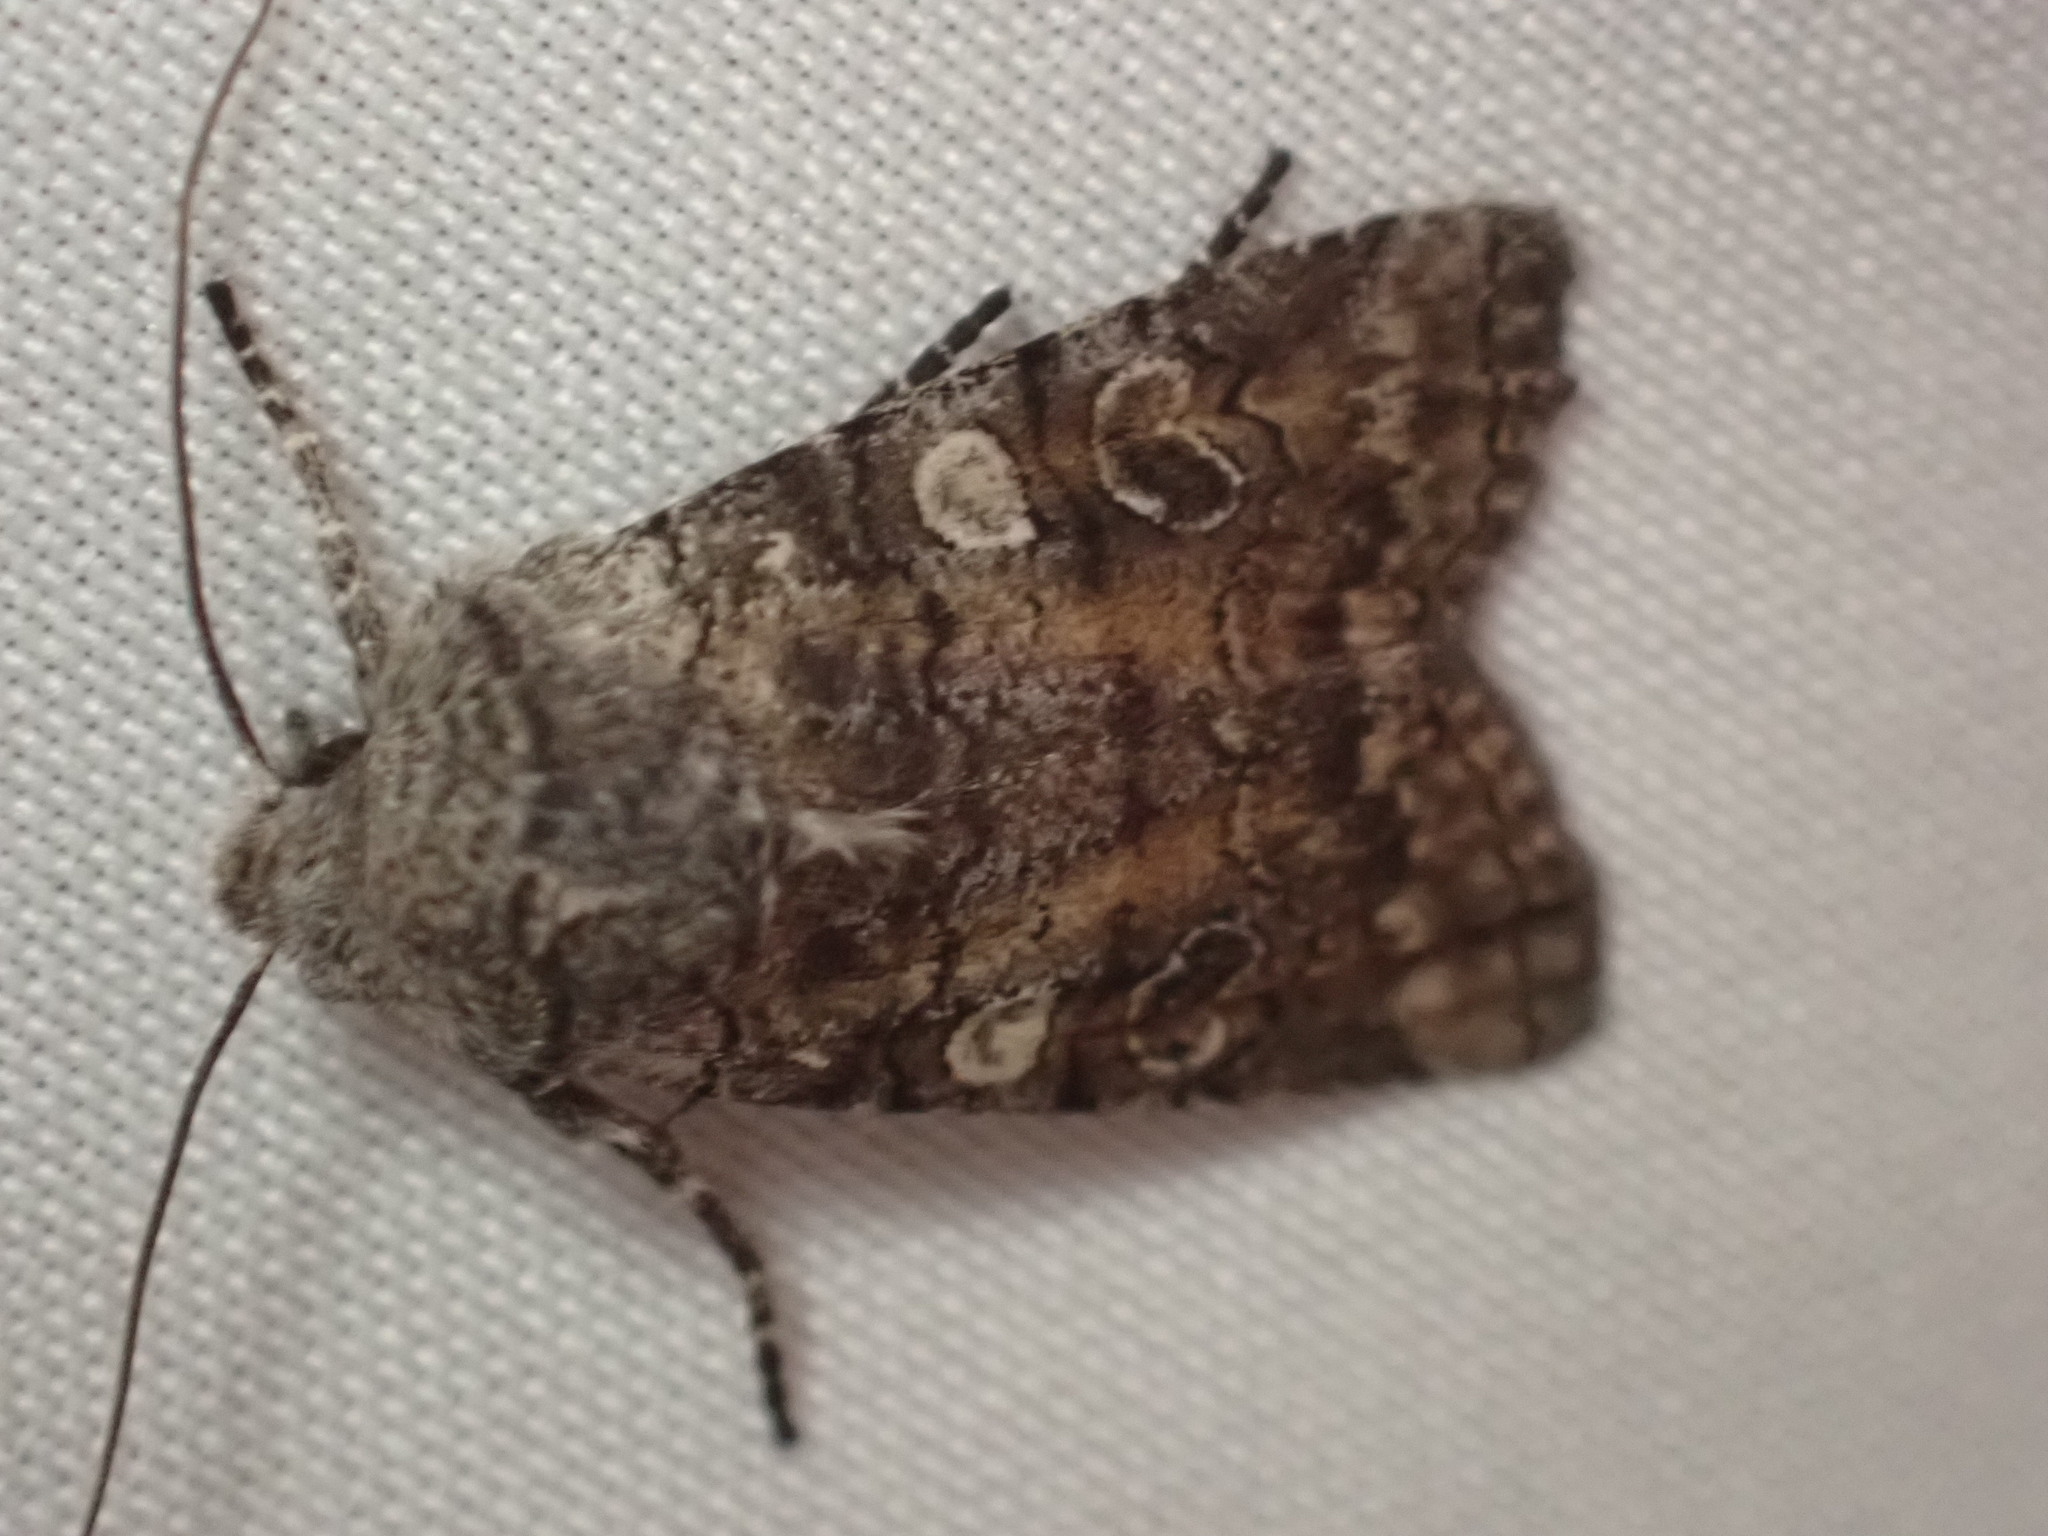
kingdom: Animalia
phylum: Arthropoda
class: Insecta
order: Lepidoptera
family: Noctuidae
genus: Litholomia
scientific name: Litholomia napaea
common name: False pinion moth
